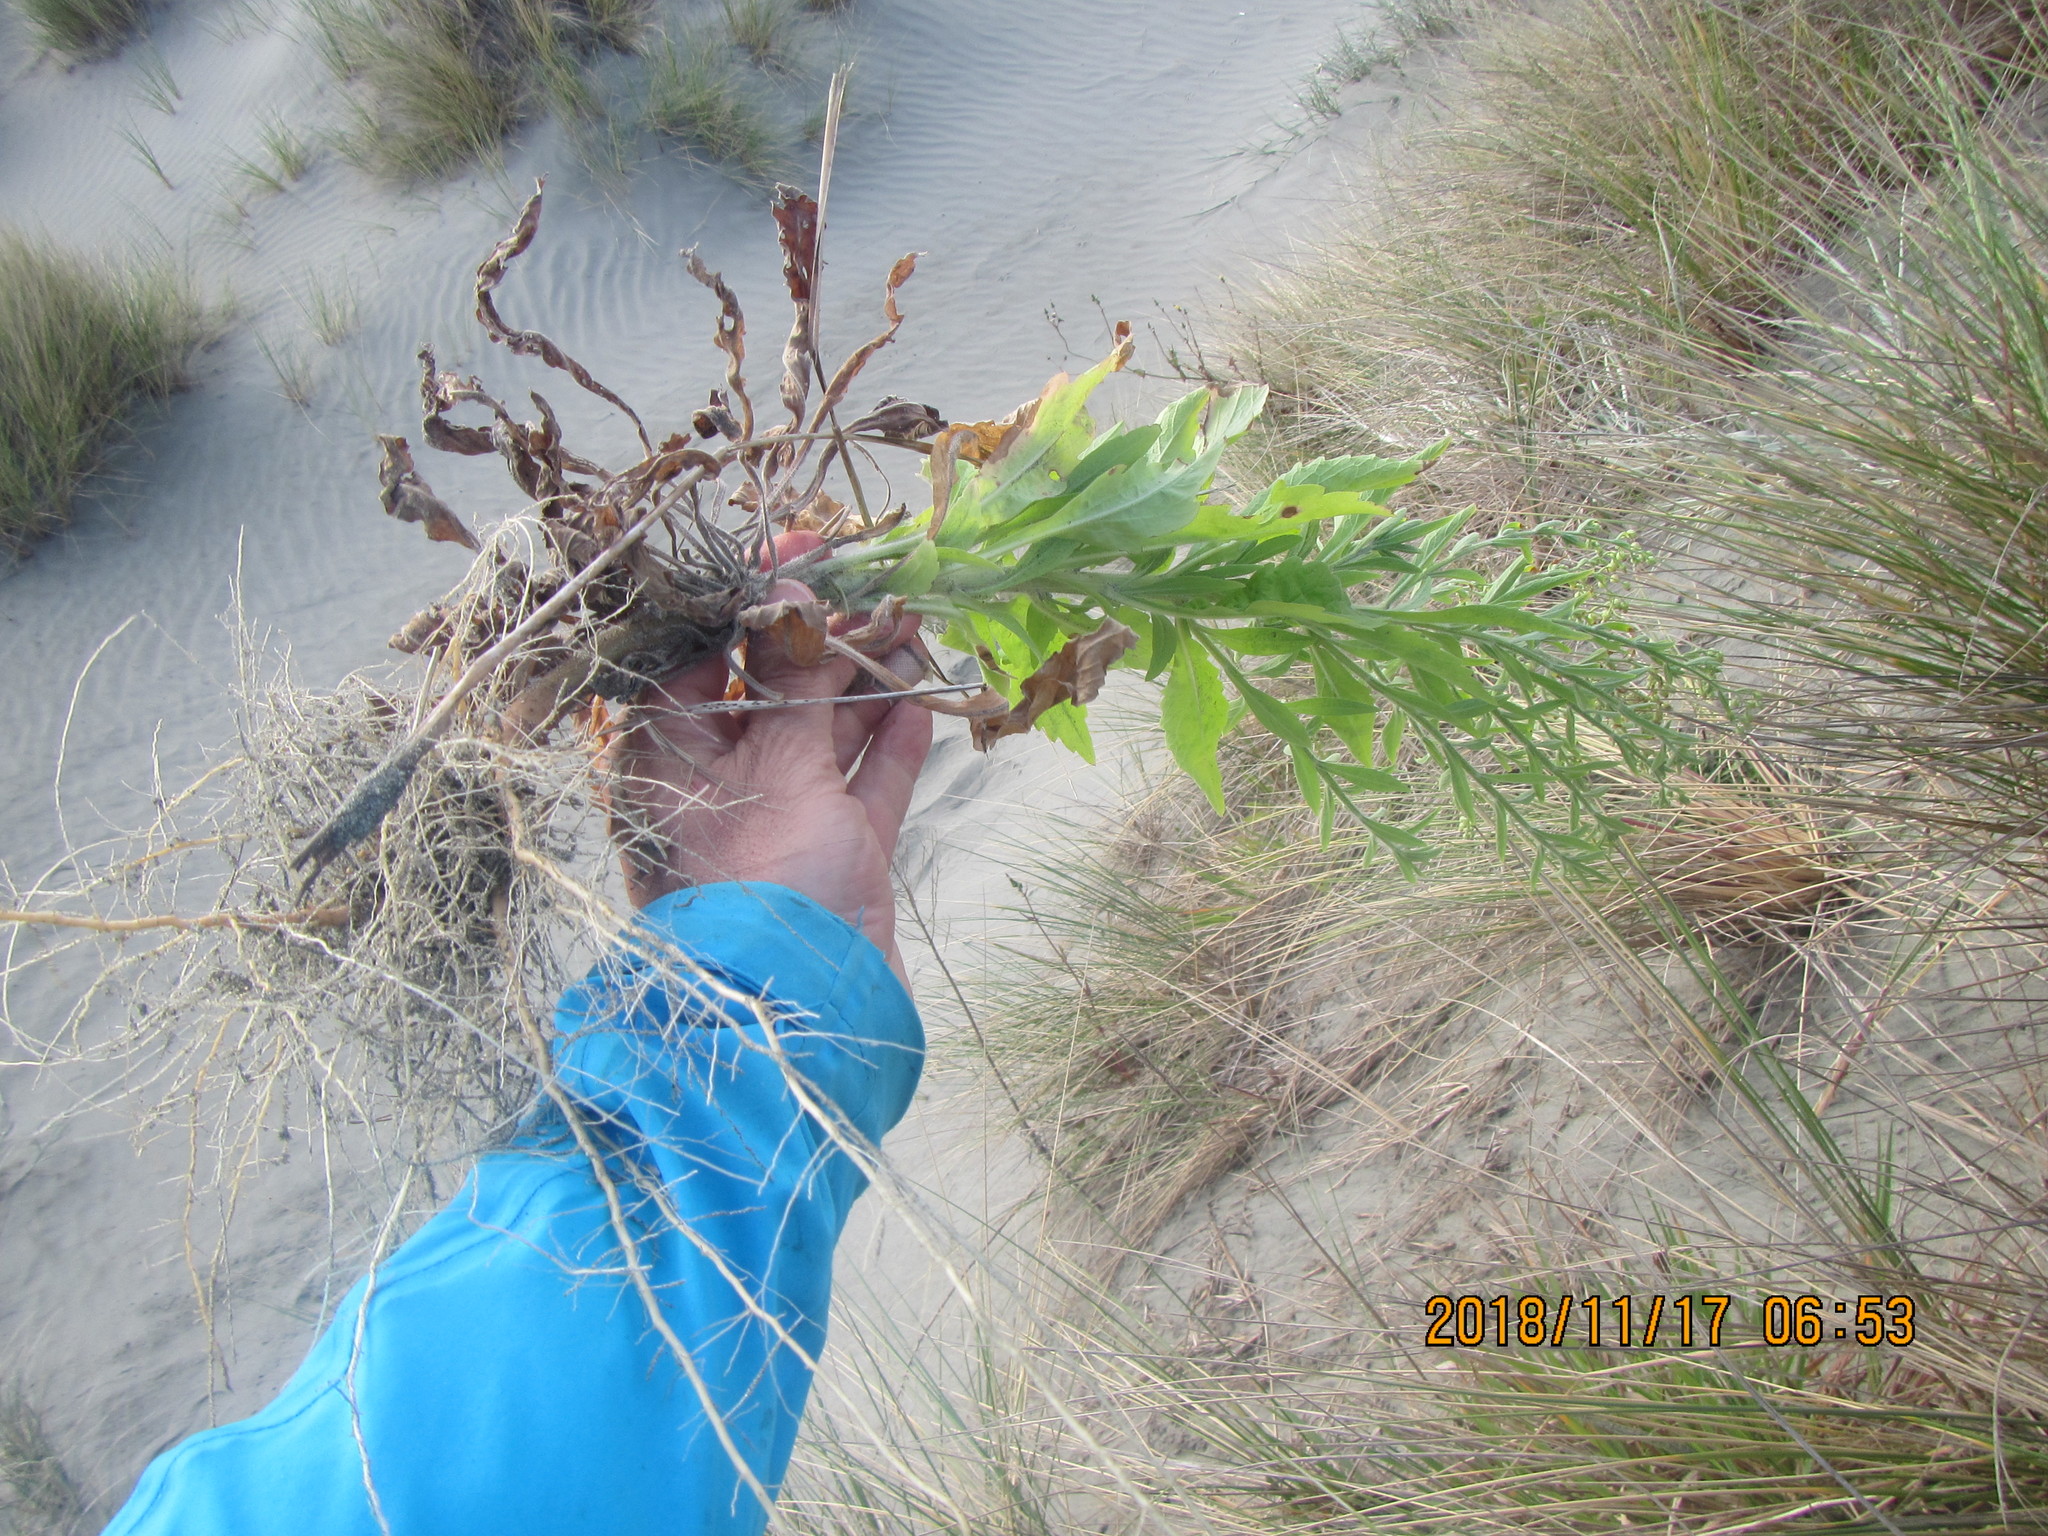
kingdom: Plantae
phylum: Tracheophyta
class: Magnoliopsida
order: Asterales
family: Asteraceae
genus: Erigeron
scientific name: Erigeron sumatrensis
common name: Daisy
